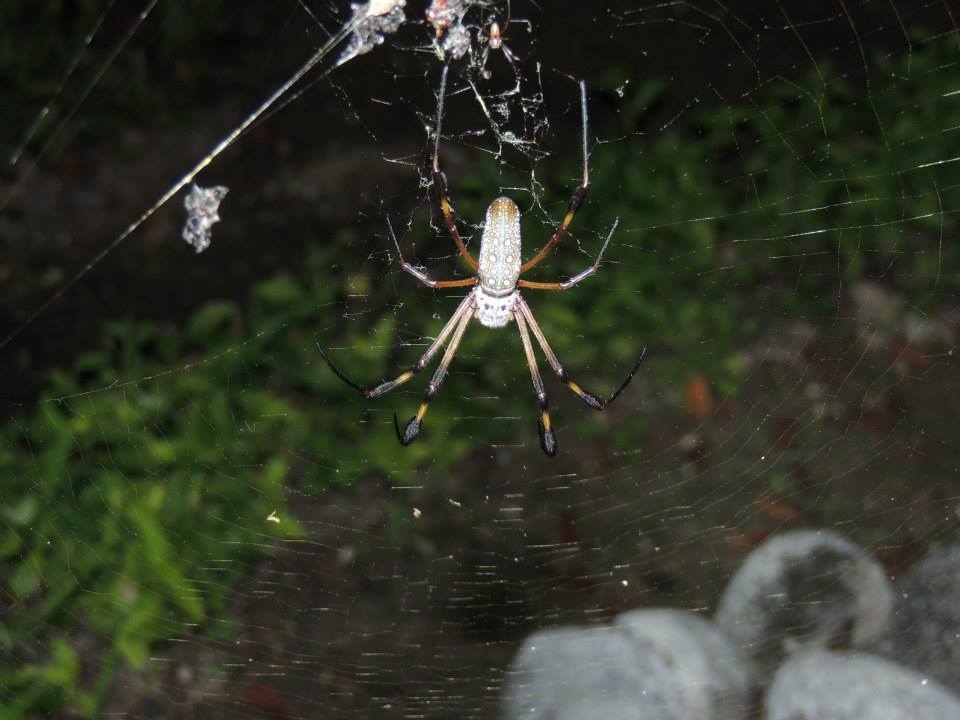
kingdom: Animalia
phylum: Arthropoda
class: Arachnida
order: Araneae
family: Araneidae
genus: Trichonephila
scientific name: Trichonephila clavipes
